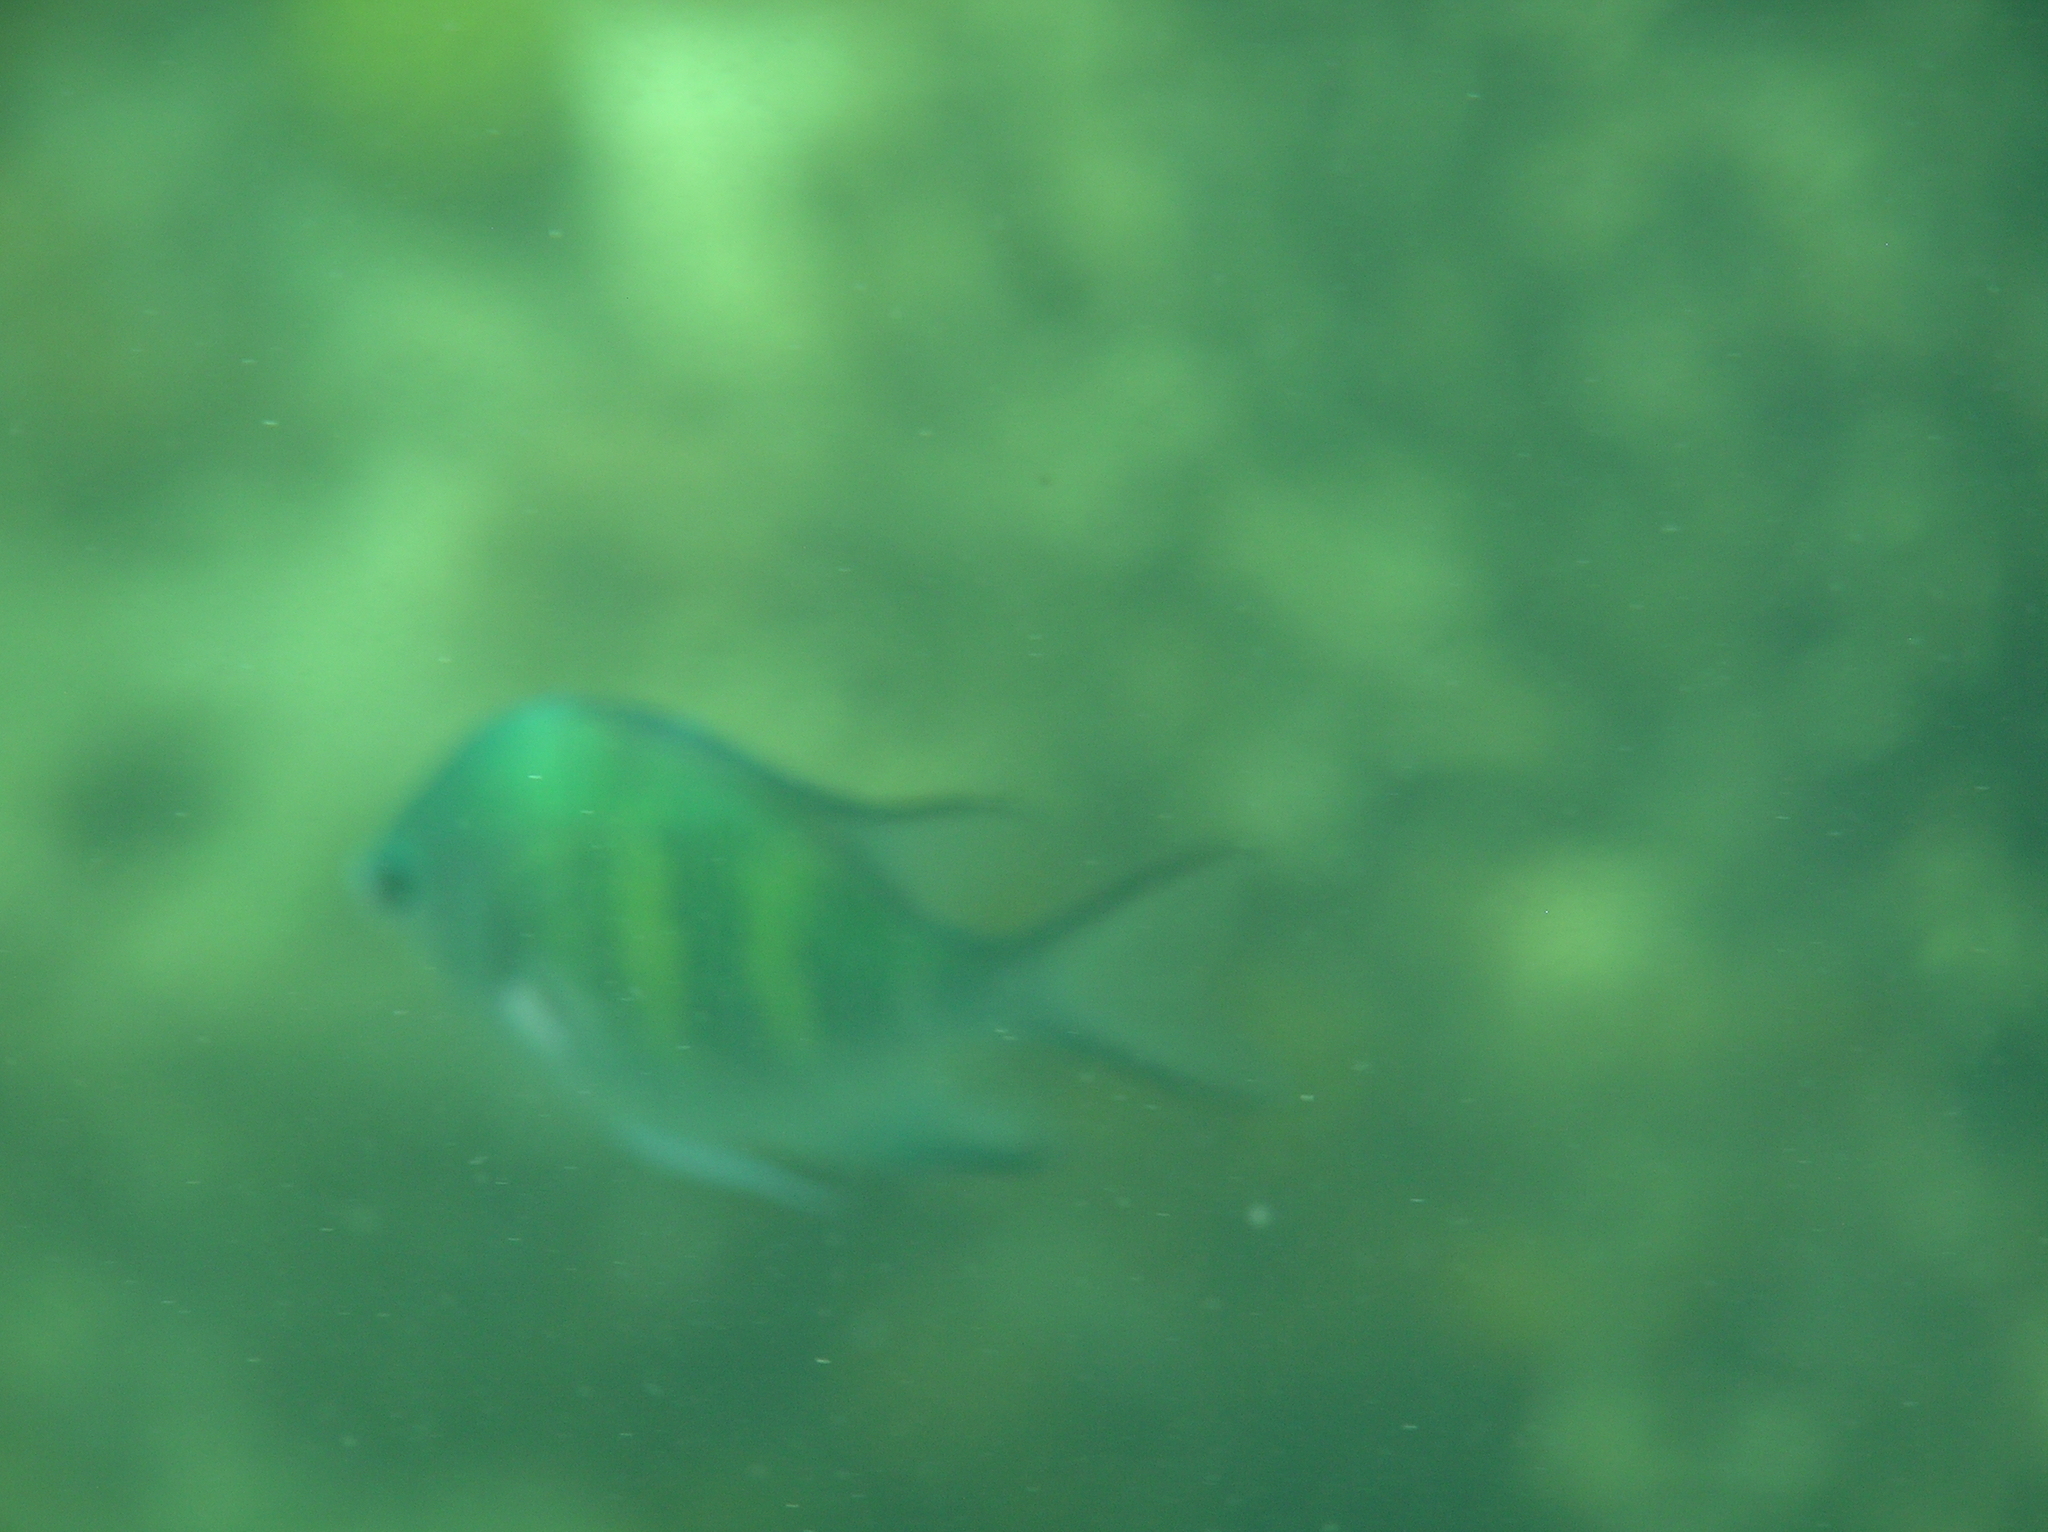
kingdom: Animalia
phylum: Chordata
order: Perciformes
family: Pomacentridae
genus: Amblyglyphidodon
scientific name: Amblyglyphidodon curacao
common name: Staghorn damsel
